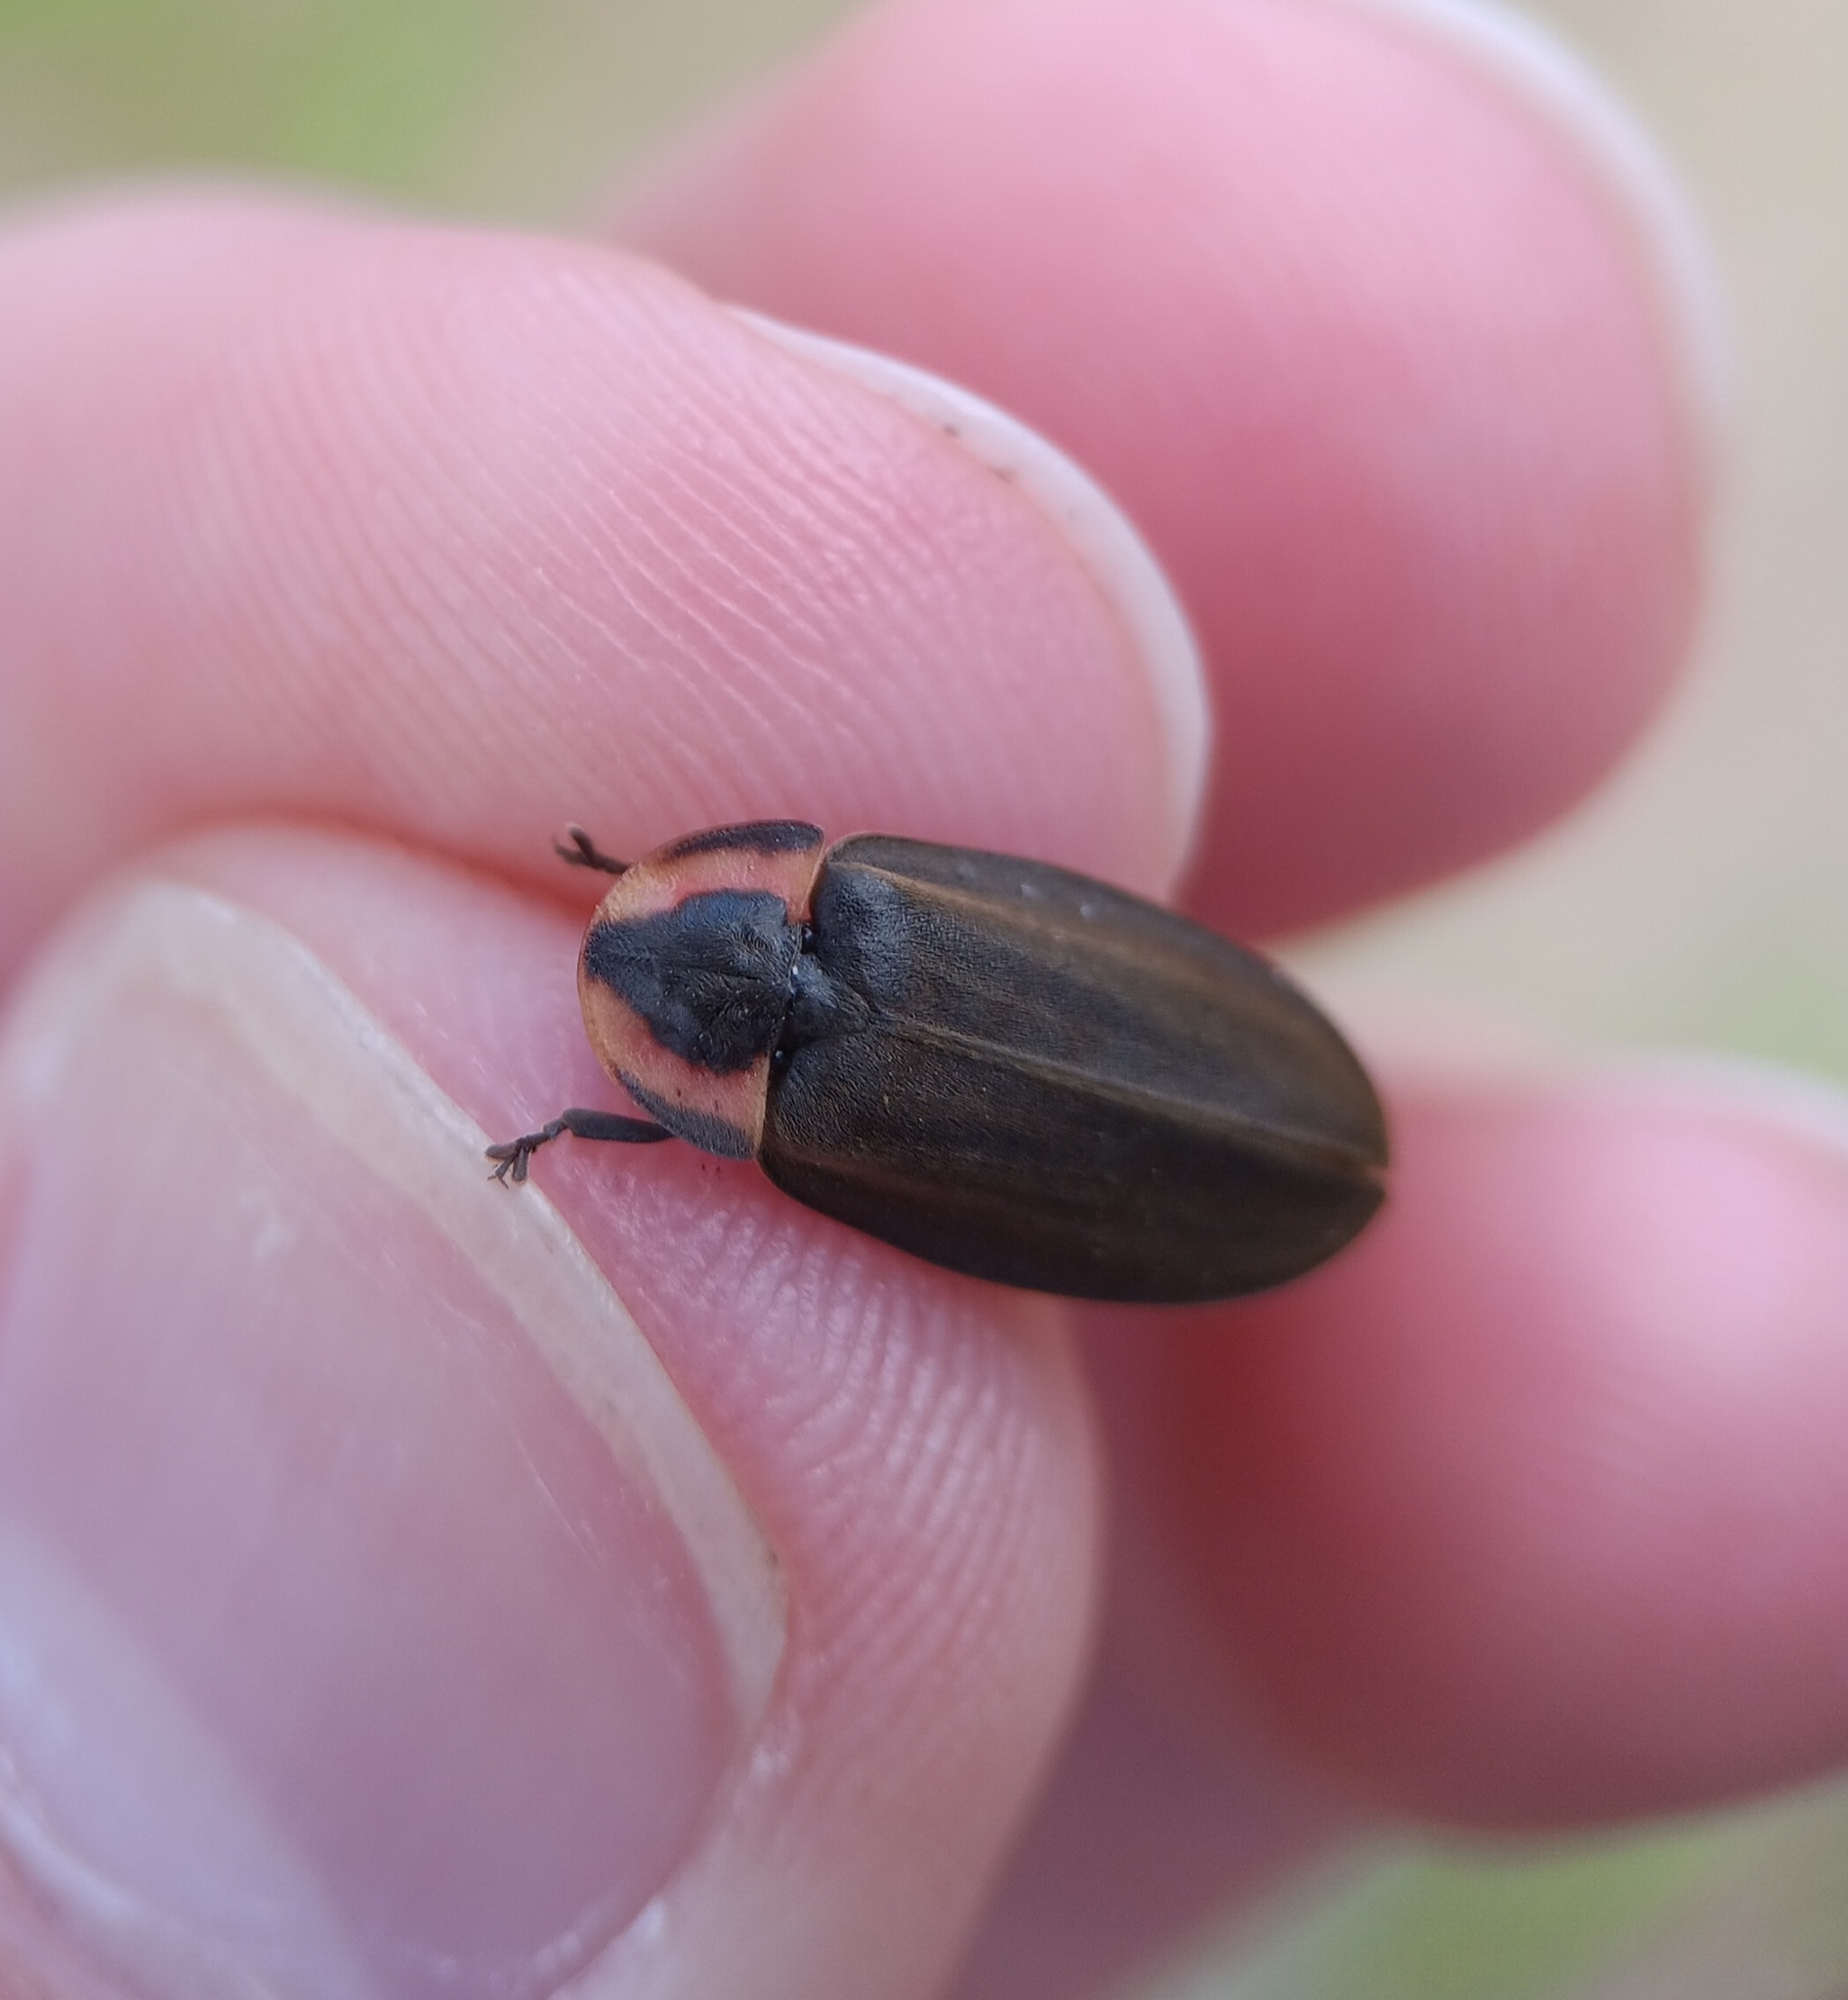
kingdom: Animalia
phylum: Arthropoda
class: Insecta
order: Coleoptera
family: Lampyridae
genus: Photinus
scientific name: Photinus corrusca
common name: Winter firefly
